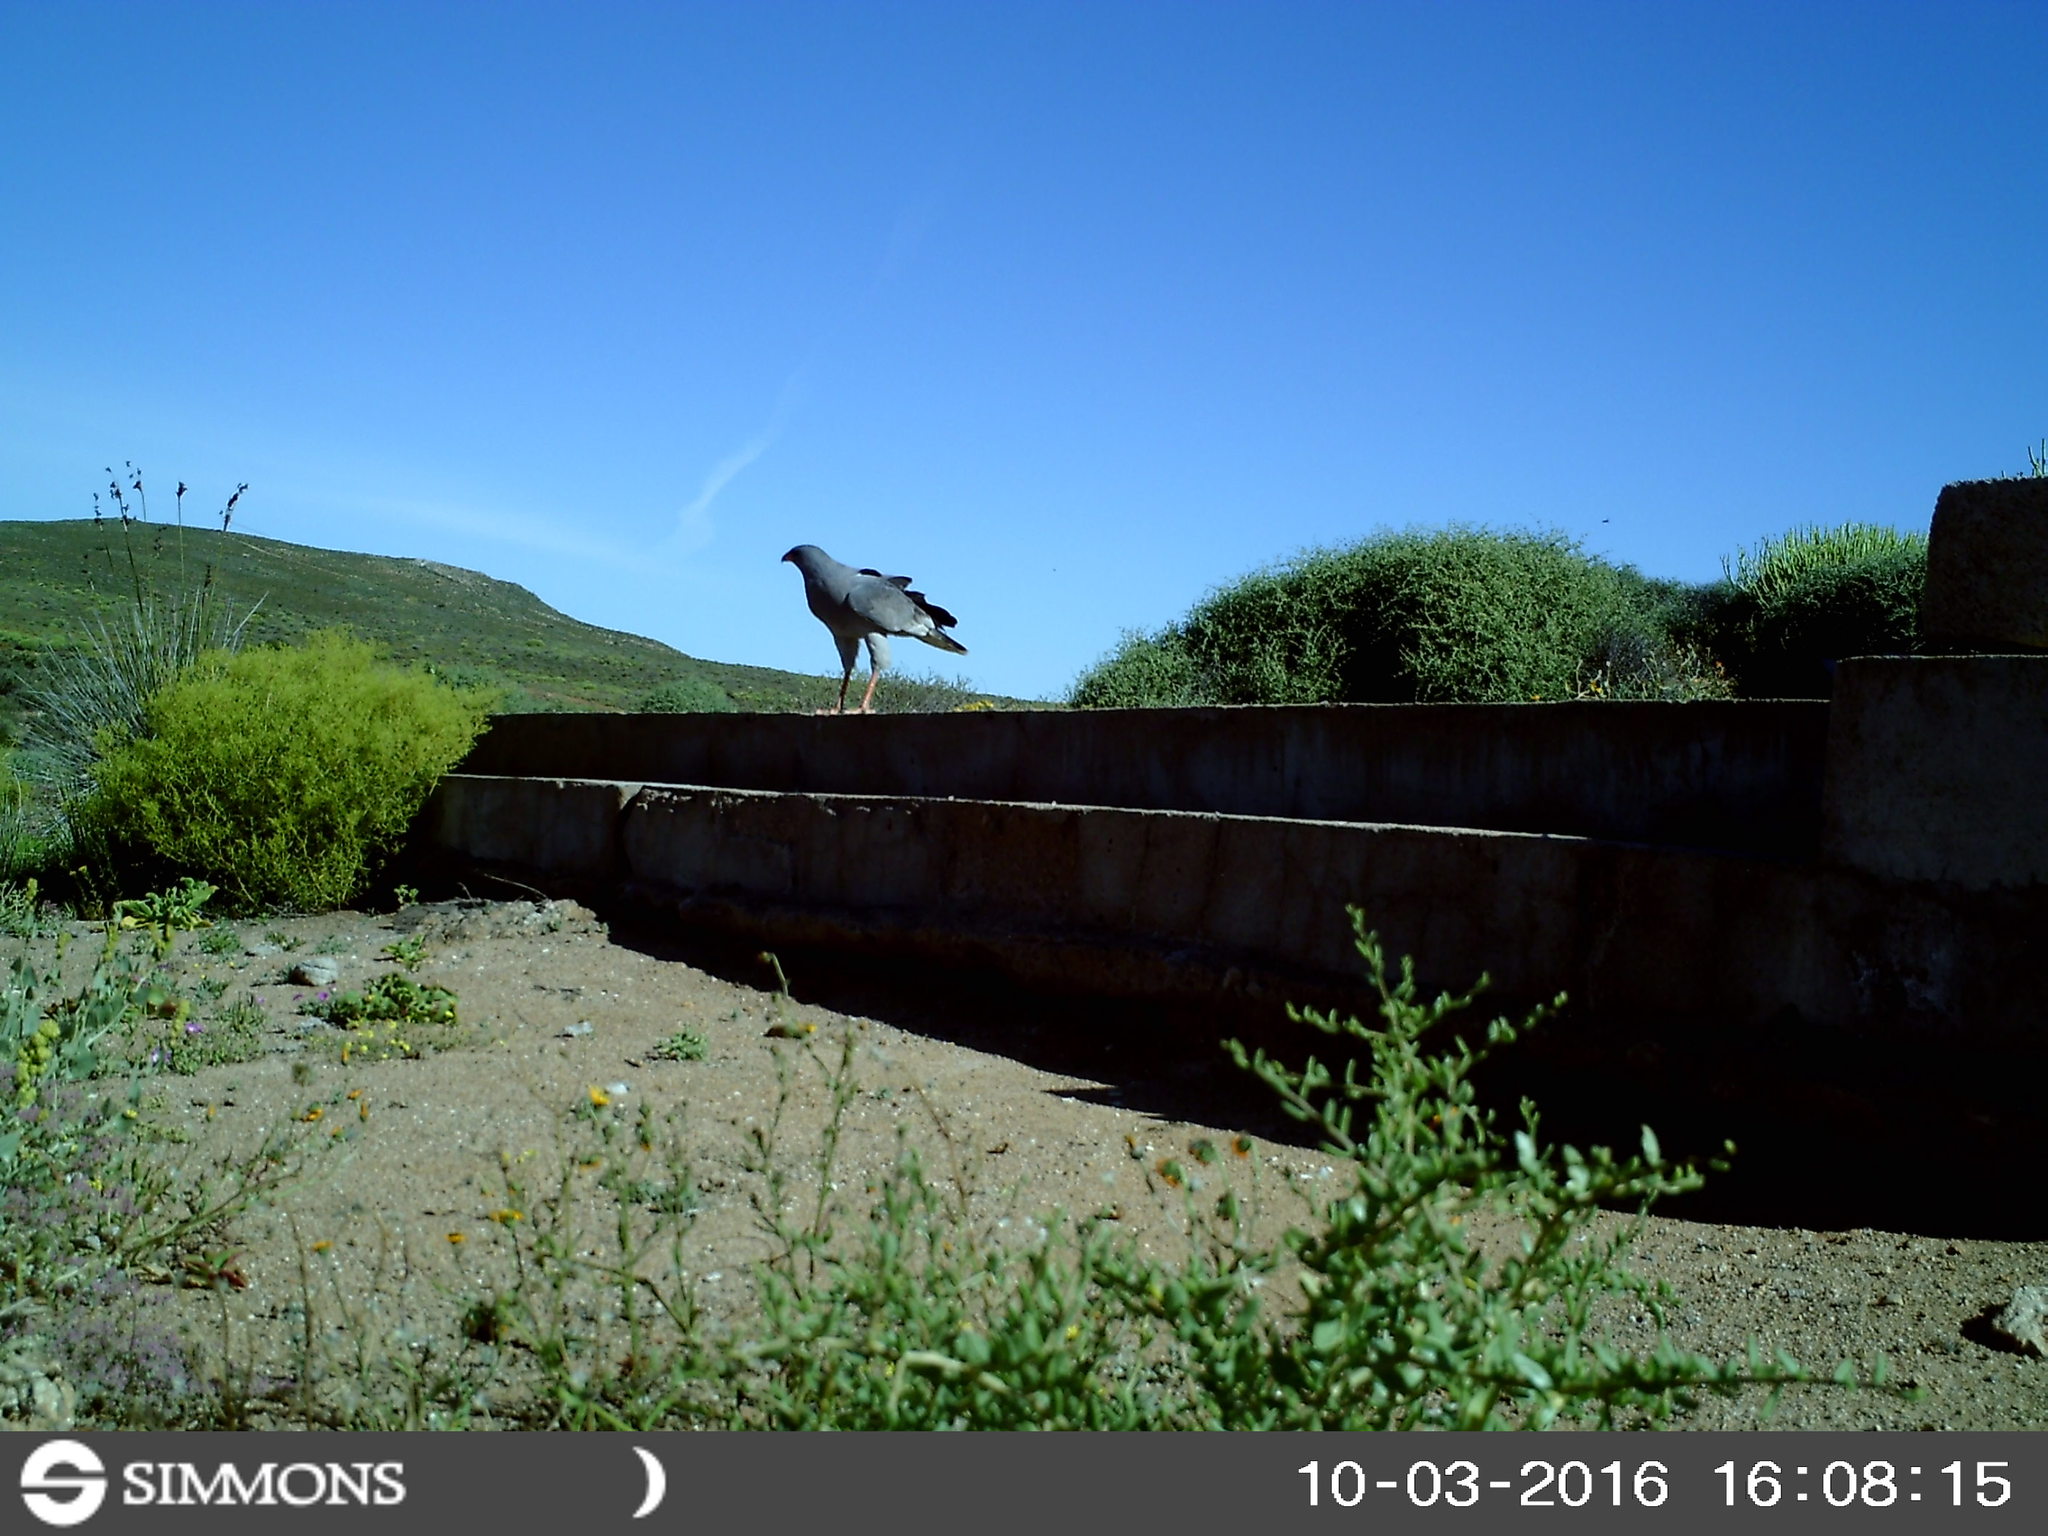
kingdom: Animalia
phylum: Chordata
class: Aves
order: Accipitriformes
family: Accipitridae
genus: Melierax
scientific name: Melierax canorus
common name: Pale chanting-goshawk
